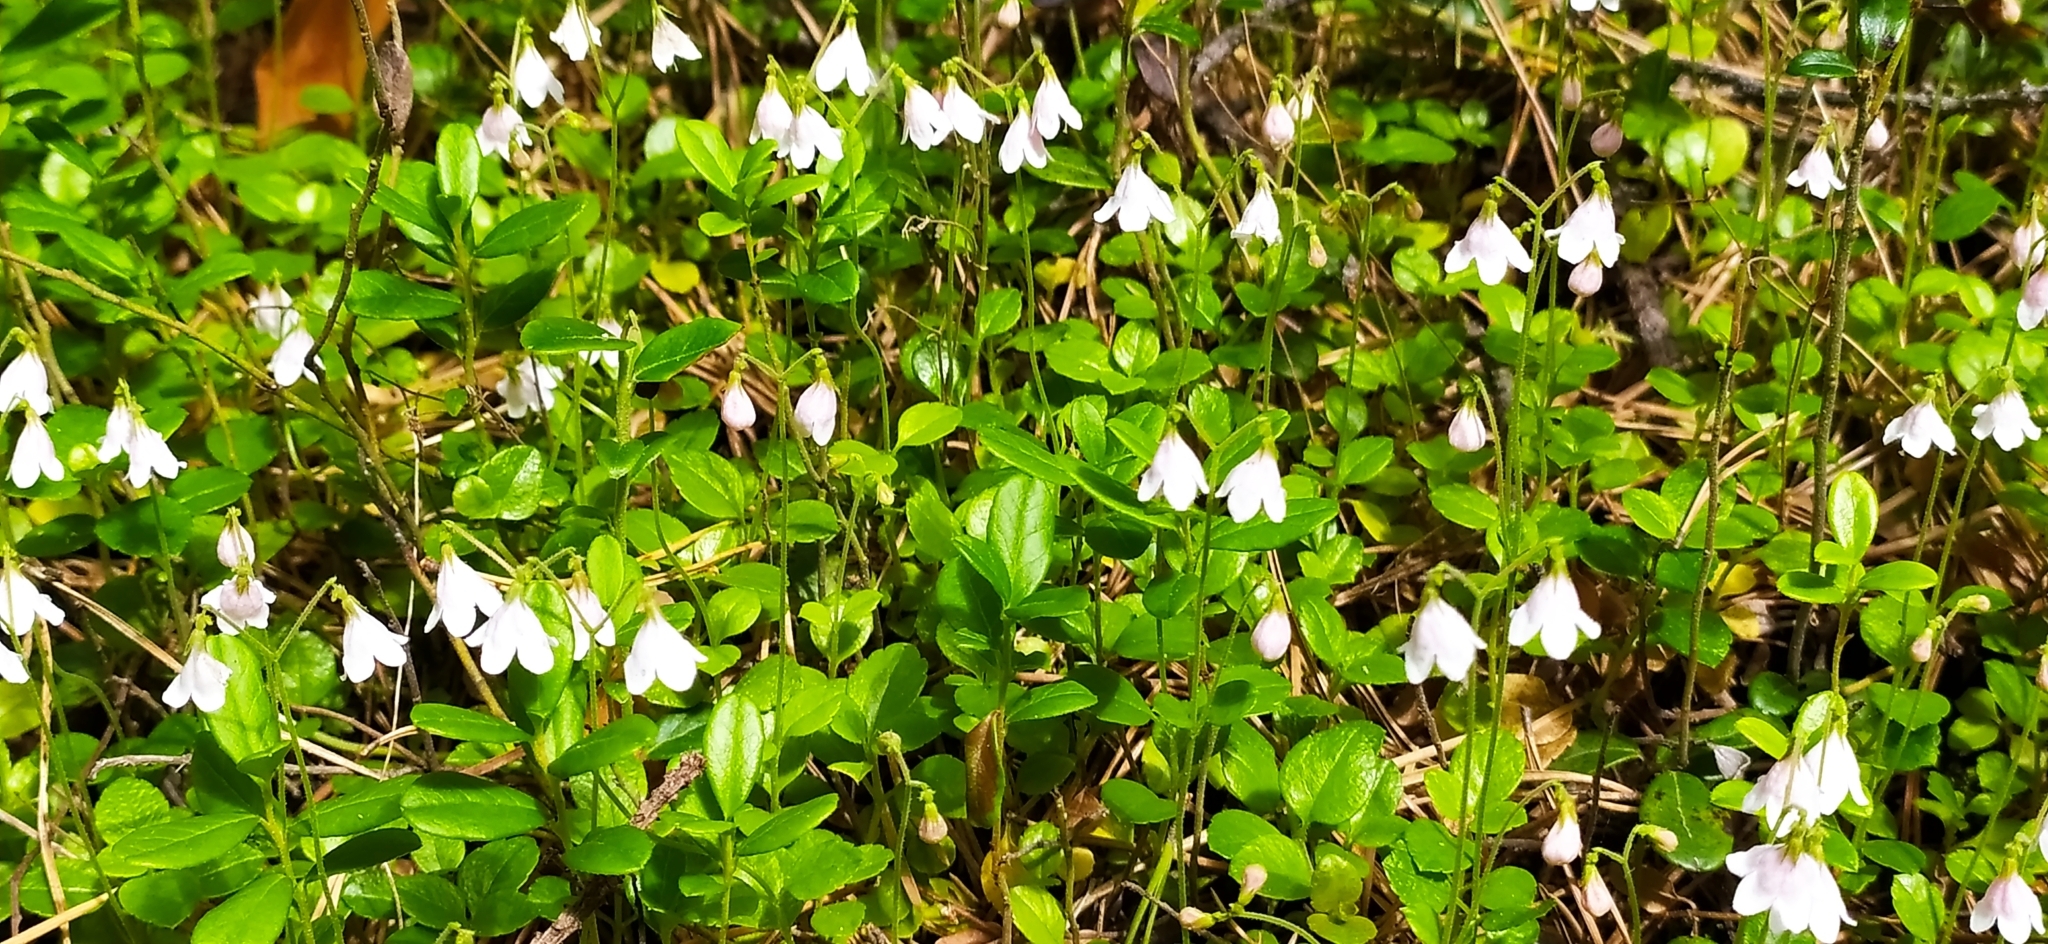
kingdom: Plantae
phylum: Tracheophyta
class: Magnoliopsida
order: Dipsacales
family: Caprifoliaceae
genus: Linnaea
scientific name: Linnaea borealis
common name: Twinflower
